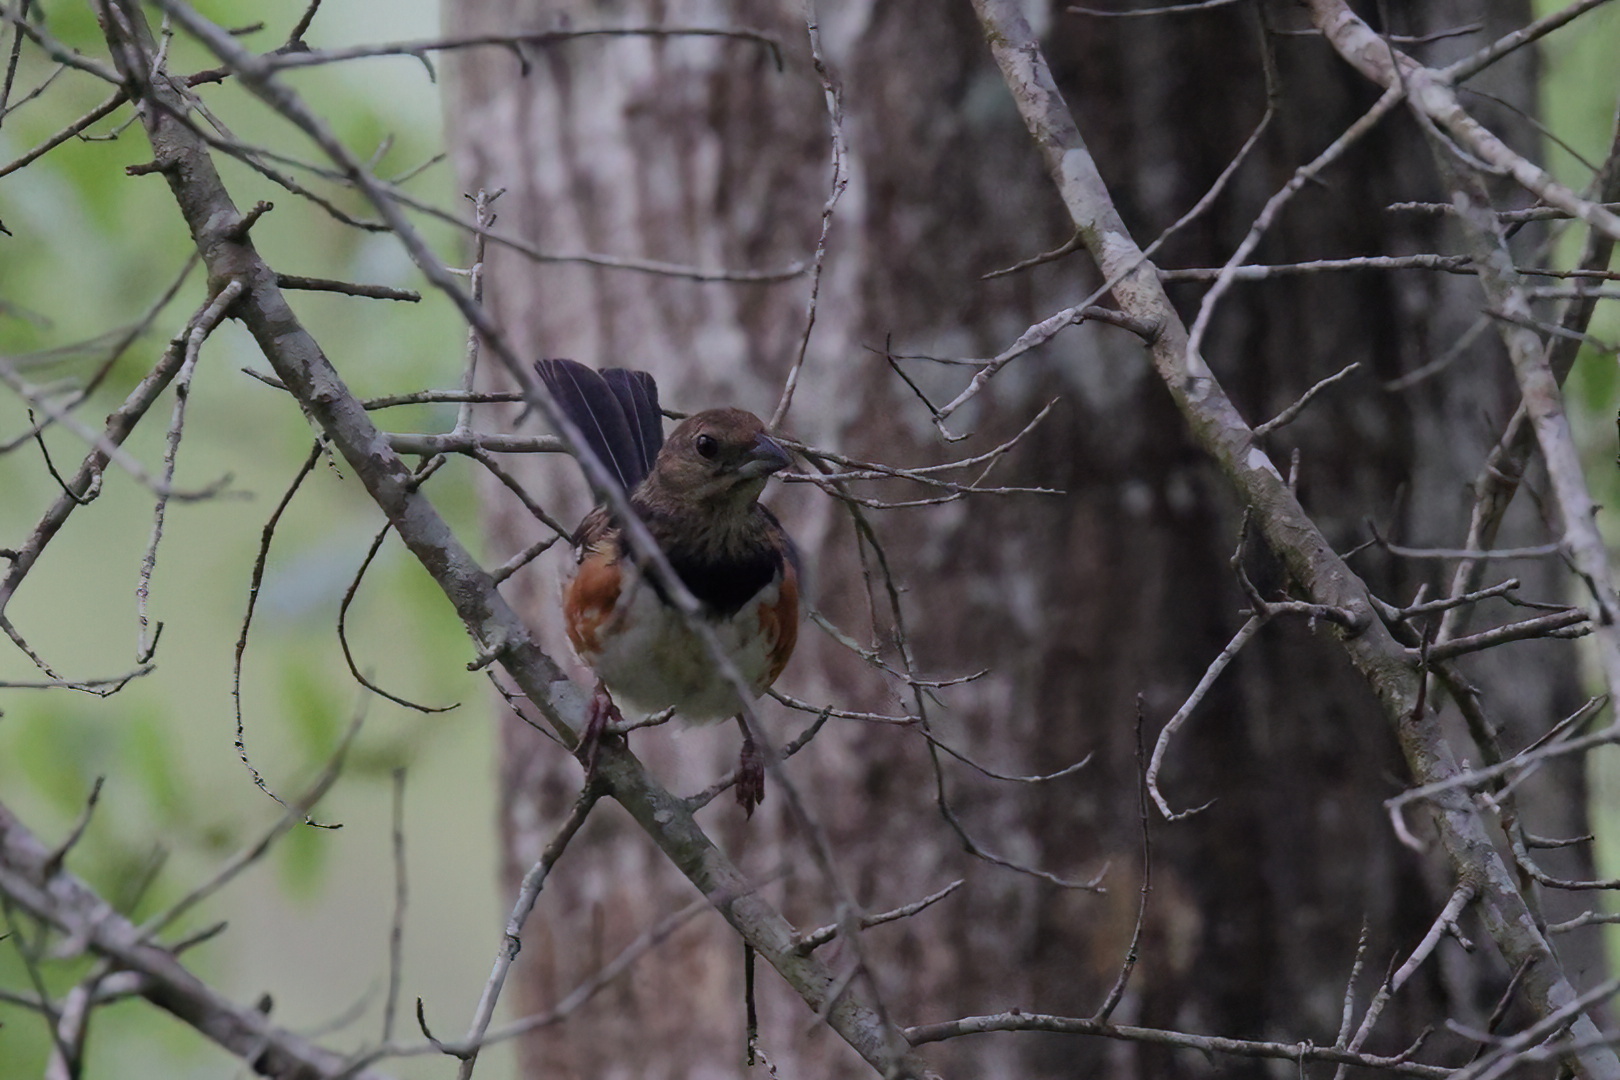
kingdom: Animalia
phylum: Chordata
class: Aves
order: Passeriformes
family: Passerellidae
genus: Pipilo
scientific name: Pipilo erythrophthalmus
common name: Eastern towhee
